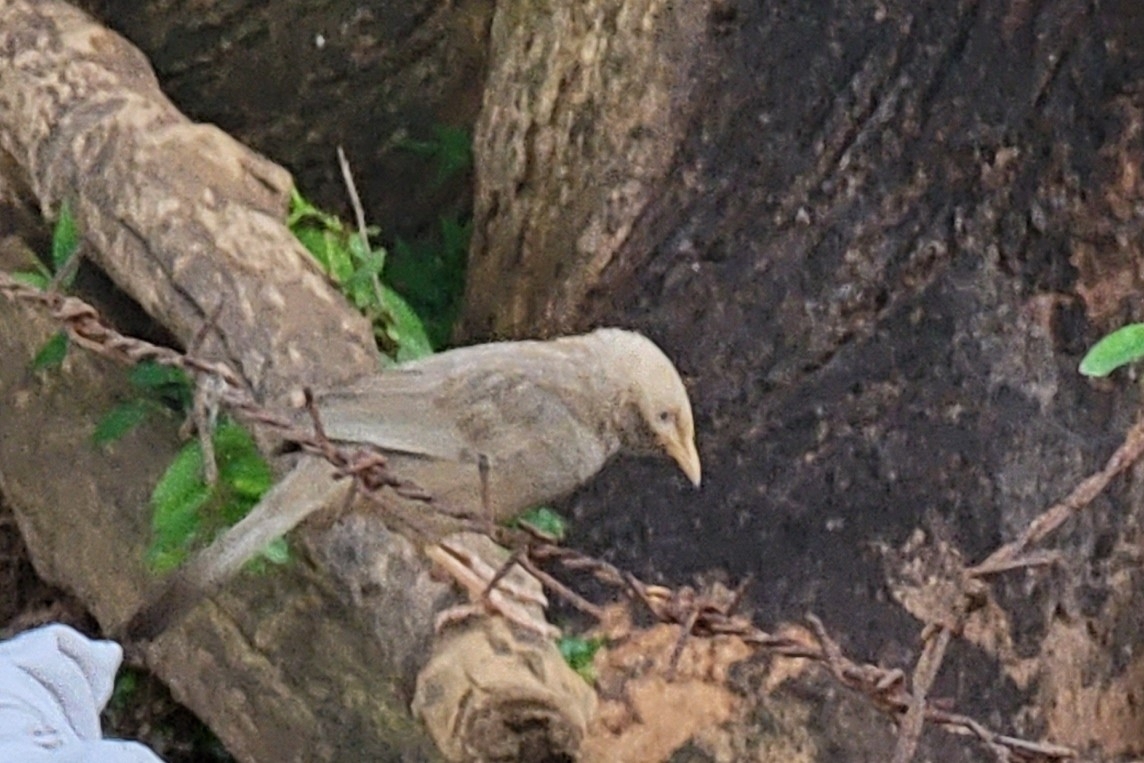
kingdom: Animalia
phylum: Chordata
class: Aves
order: Passeriformes
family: Leiothrichidae
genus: Turdoides
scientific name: Turdoides affinis
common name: Yellow-billed babbler
